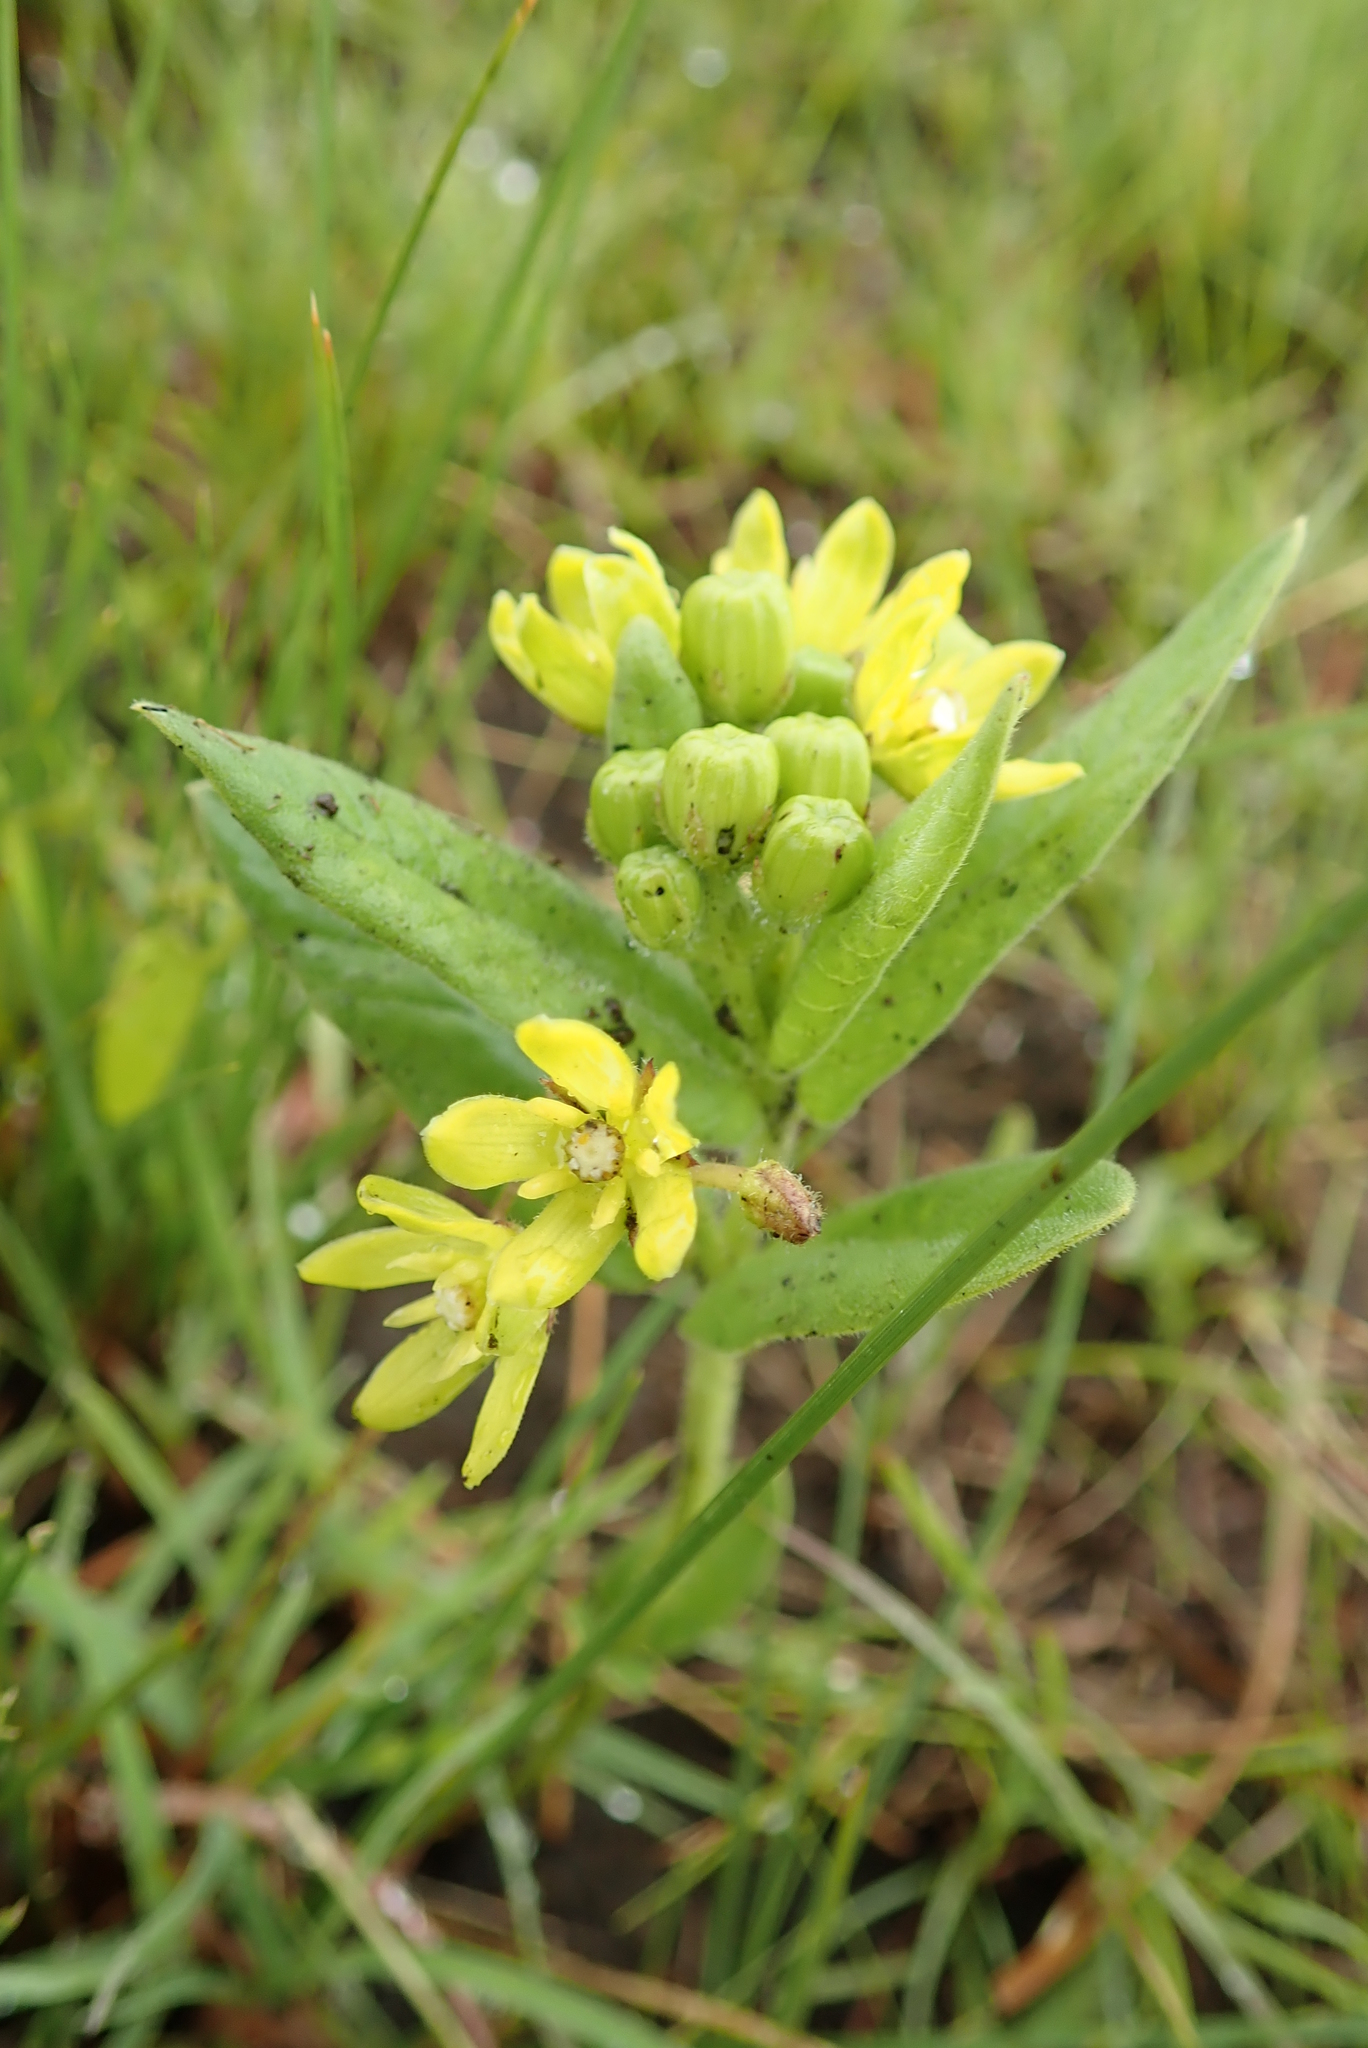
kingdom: Plantae
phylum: Tracheophyta
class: Magnoliopsida
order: Gentianales
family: Apocynaceae
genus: Schizoglossum
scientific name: Schizoglossum flavum
